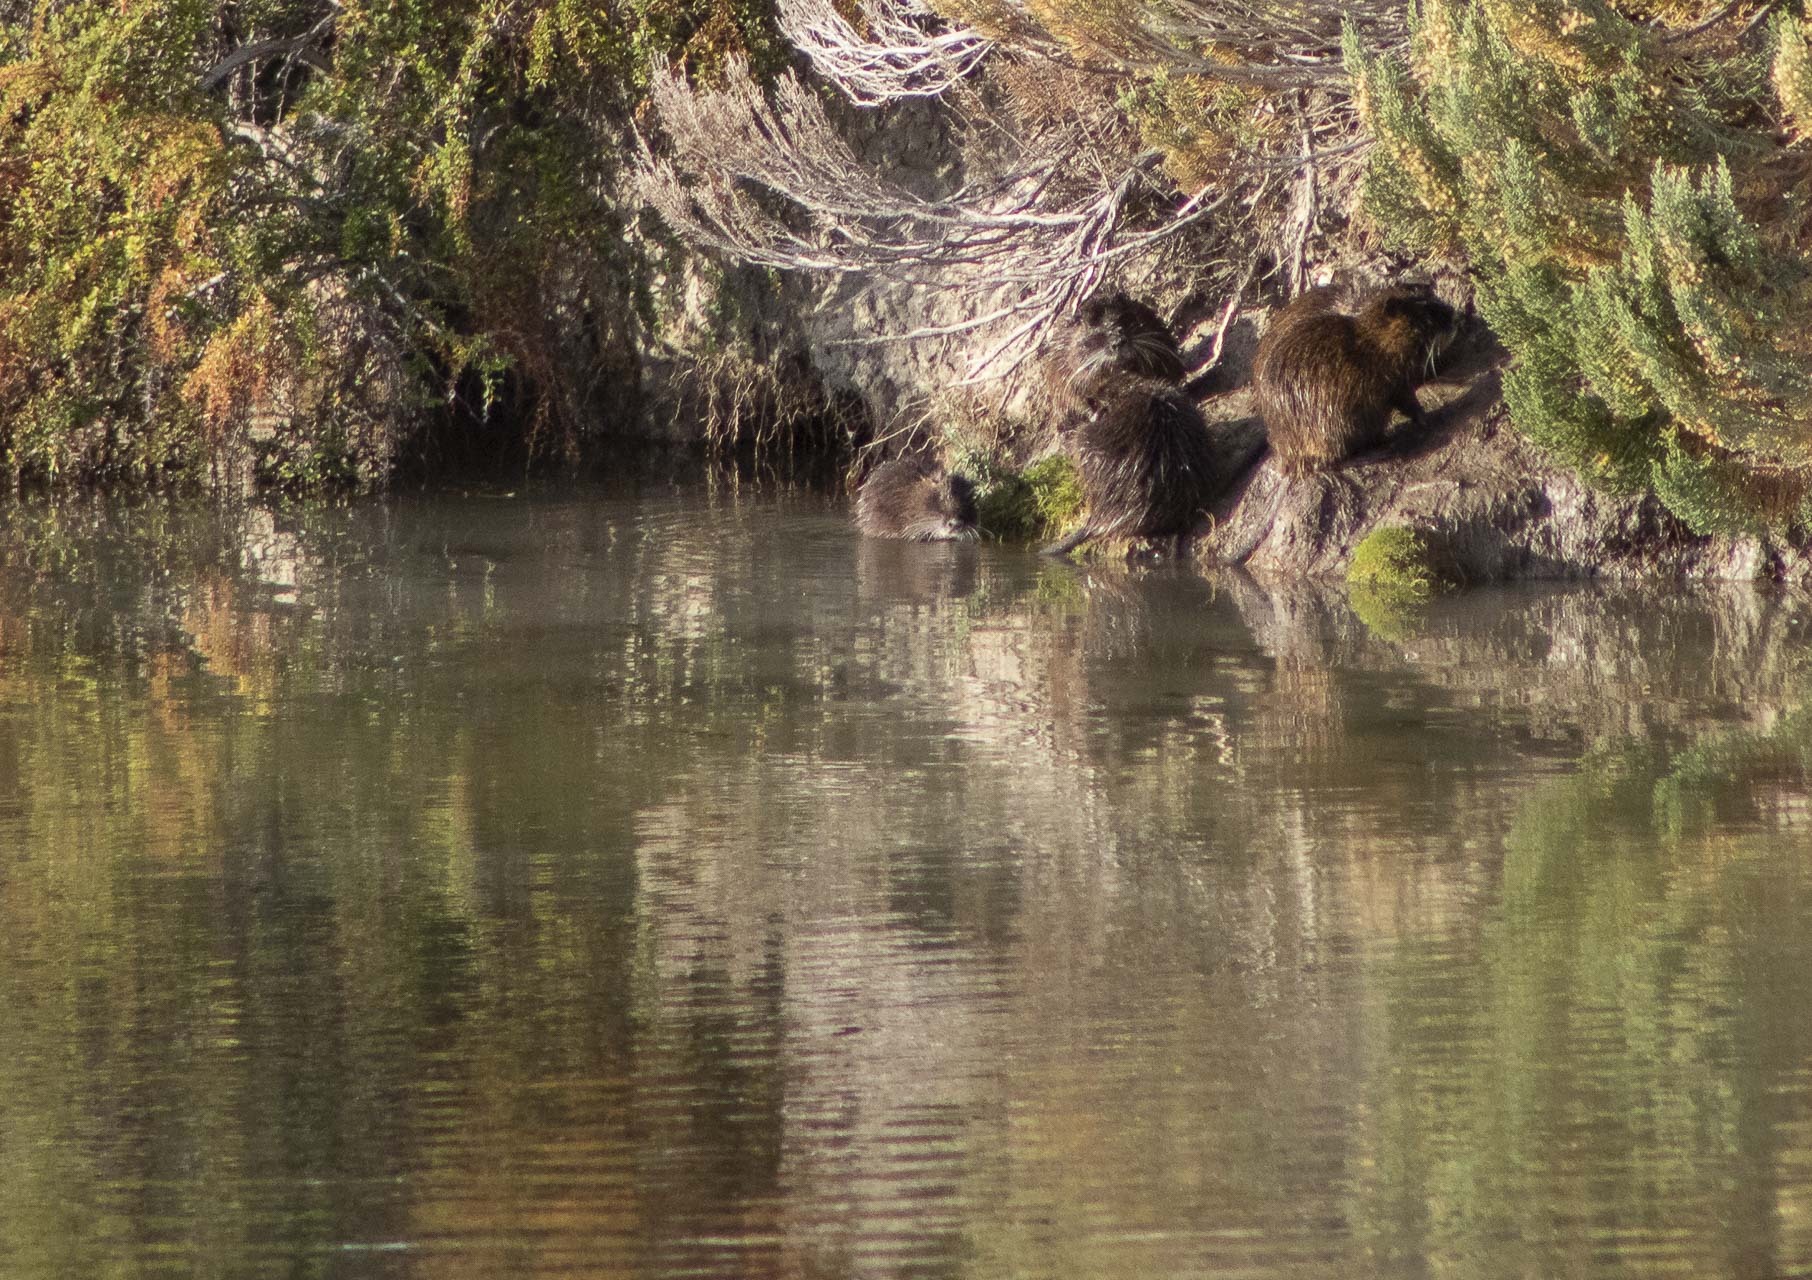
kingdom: Animalia
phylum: Chordata
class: Mammalia
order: Rodentia
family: Myocastoridae
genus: Myocastor
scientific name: Myocastor coypus
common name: Coypu
